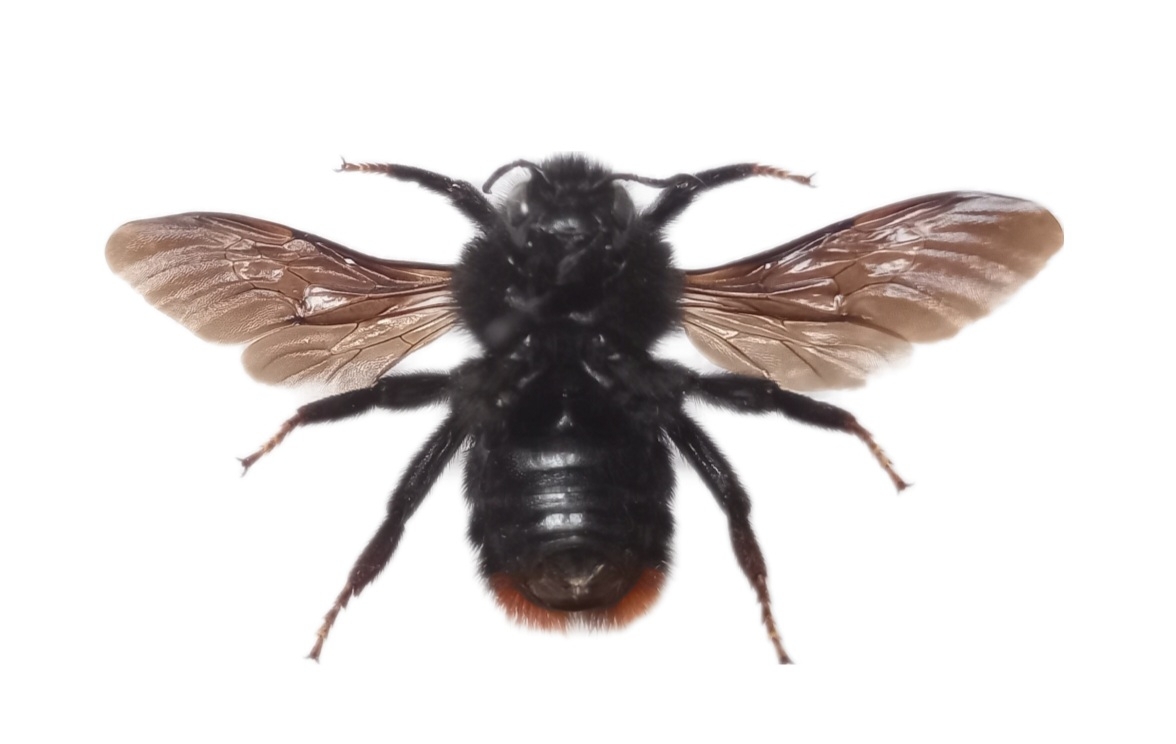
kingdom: Animalia
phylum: Arthropoda
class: Insecta
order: Hymenoptera
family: Apidae
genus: Bombus
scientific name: Bombus rupestris
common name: Hill cuckoo-bee
